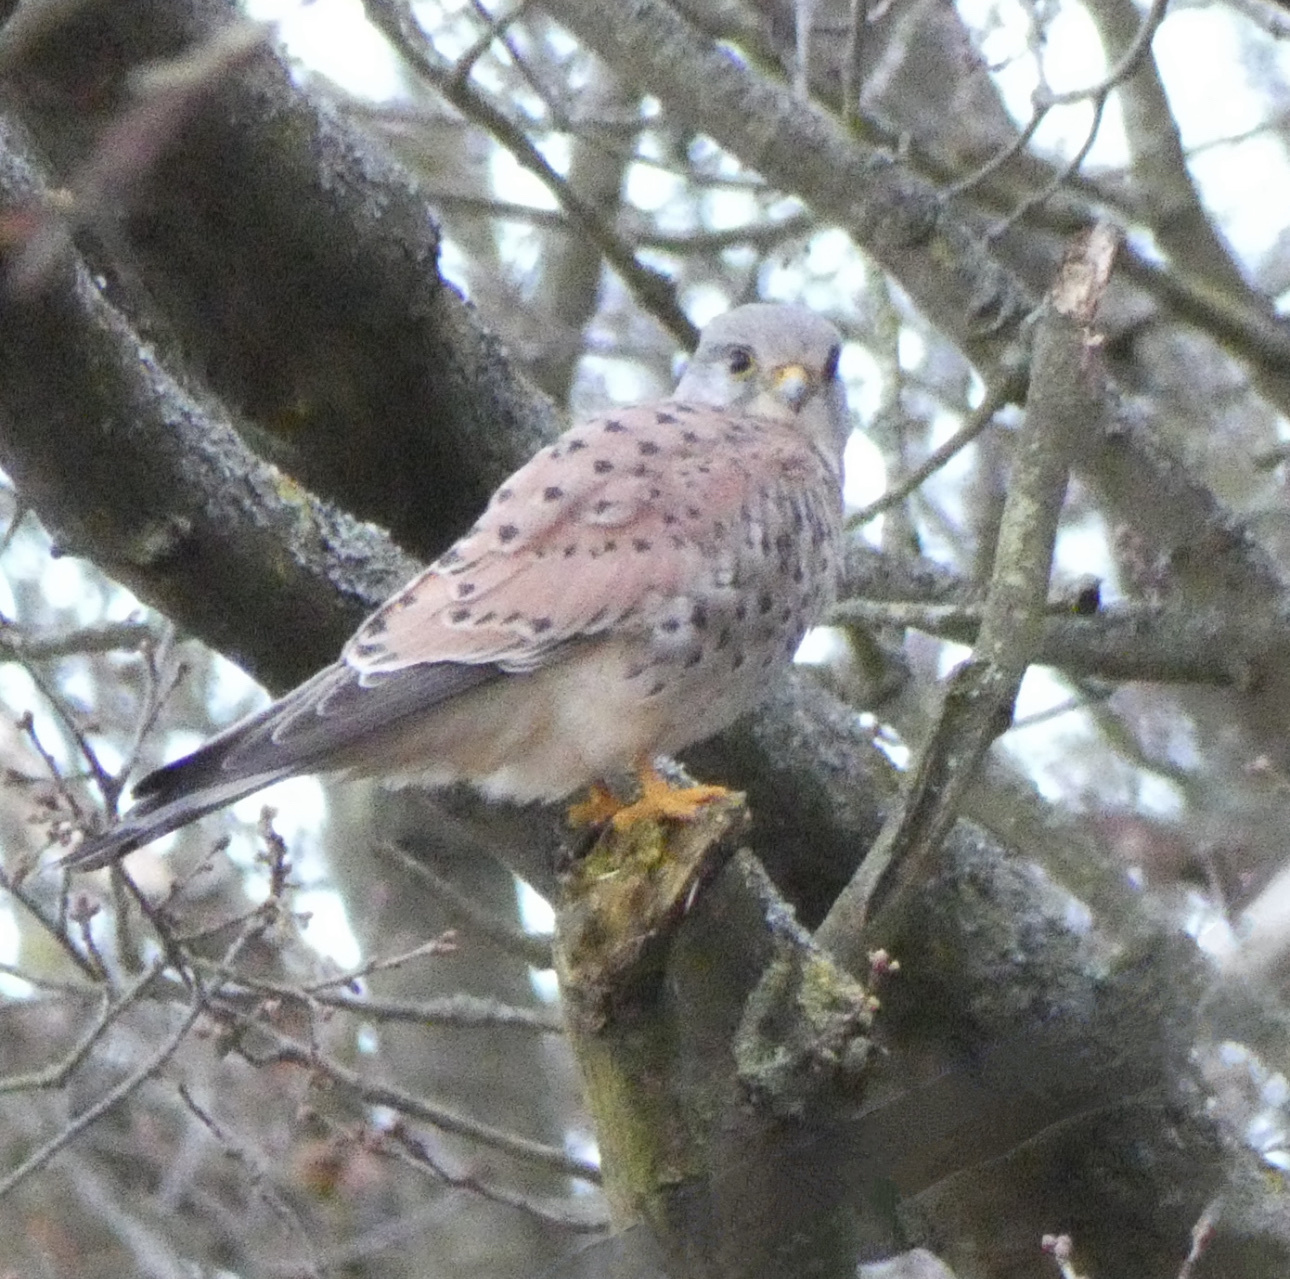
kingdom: Animalia
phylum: Chordata
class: Aves
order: Falconiformes
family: Falconidae
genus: Falco
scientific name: Falco tinnunculus
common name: Common kestrel
